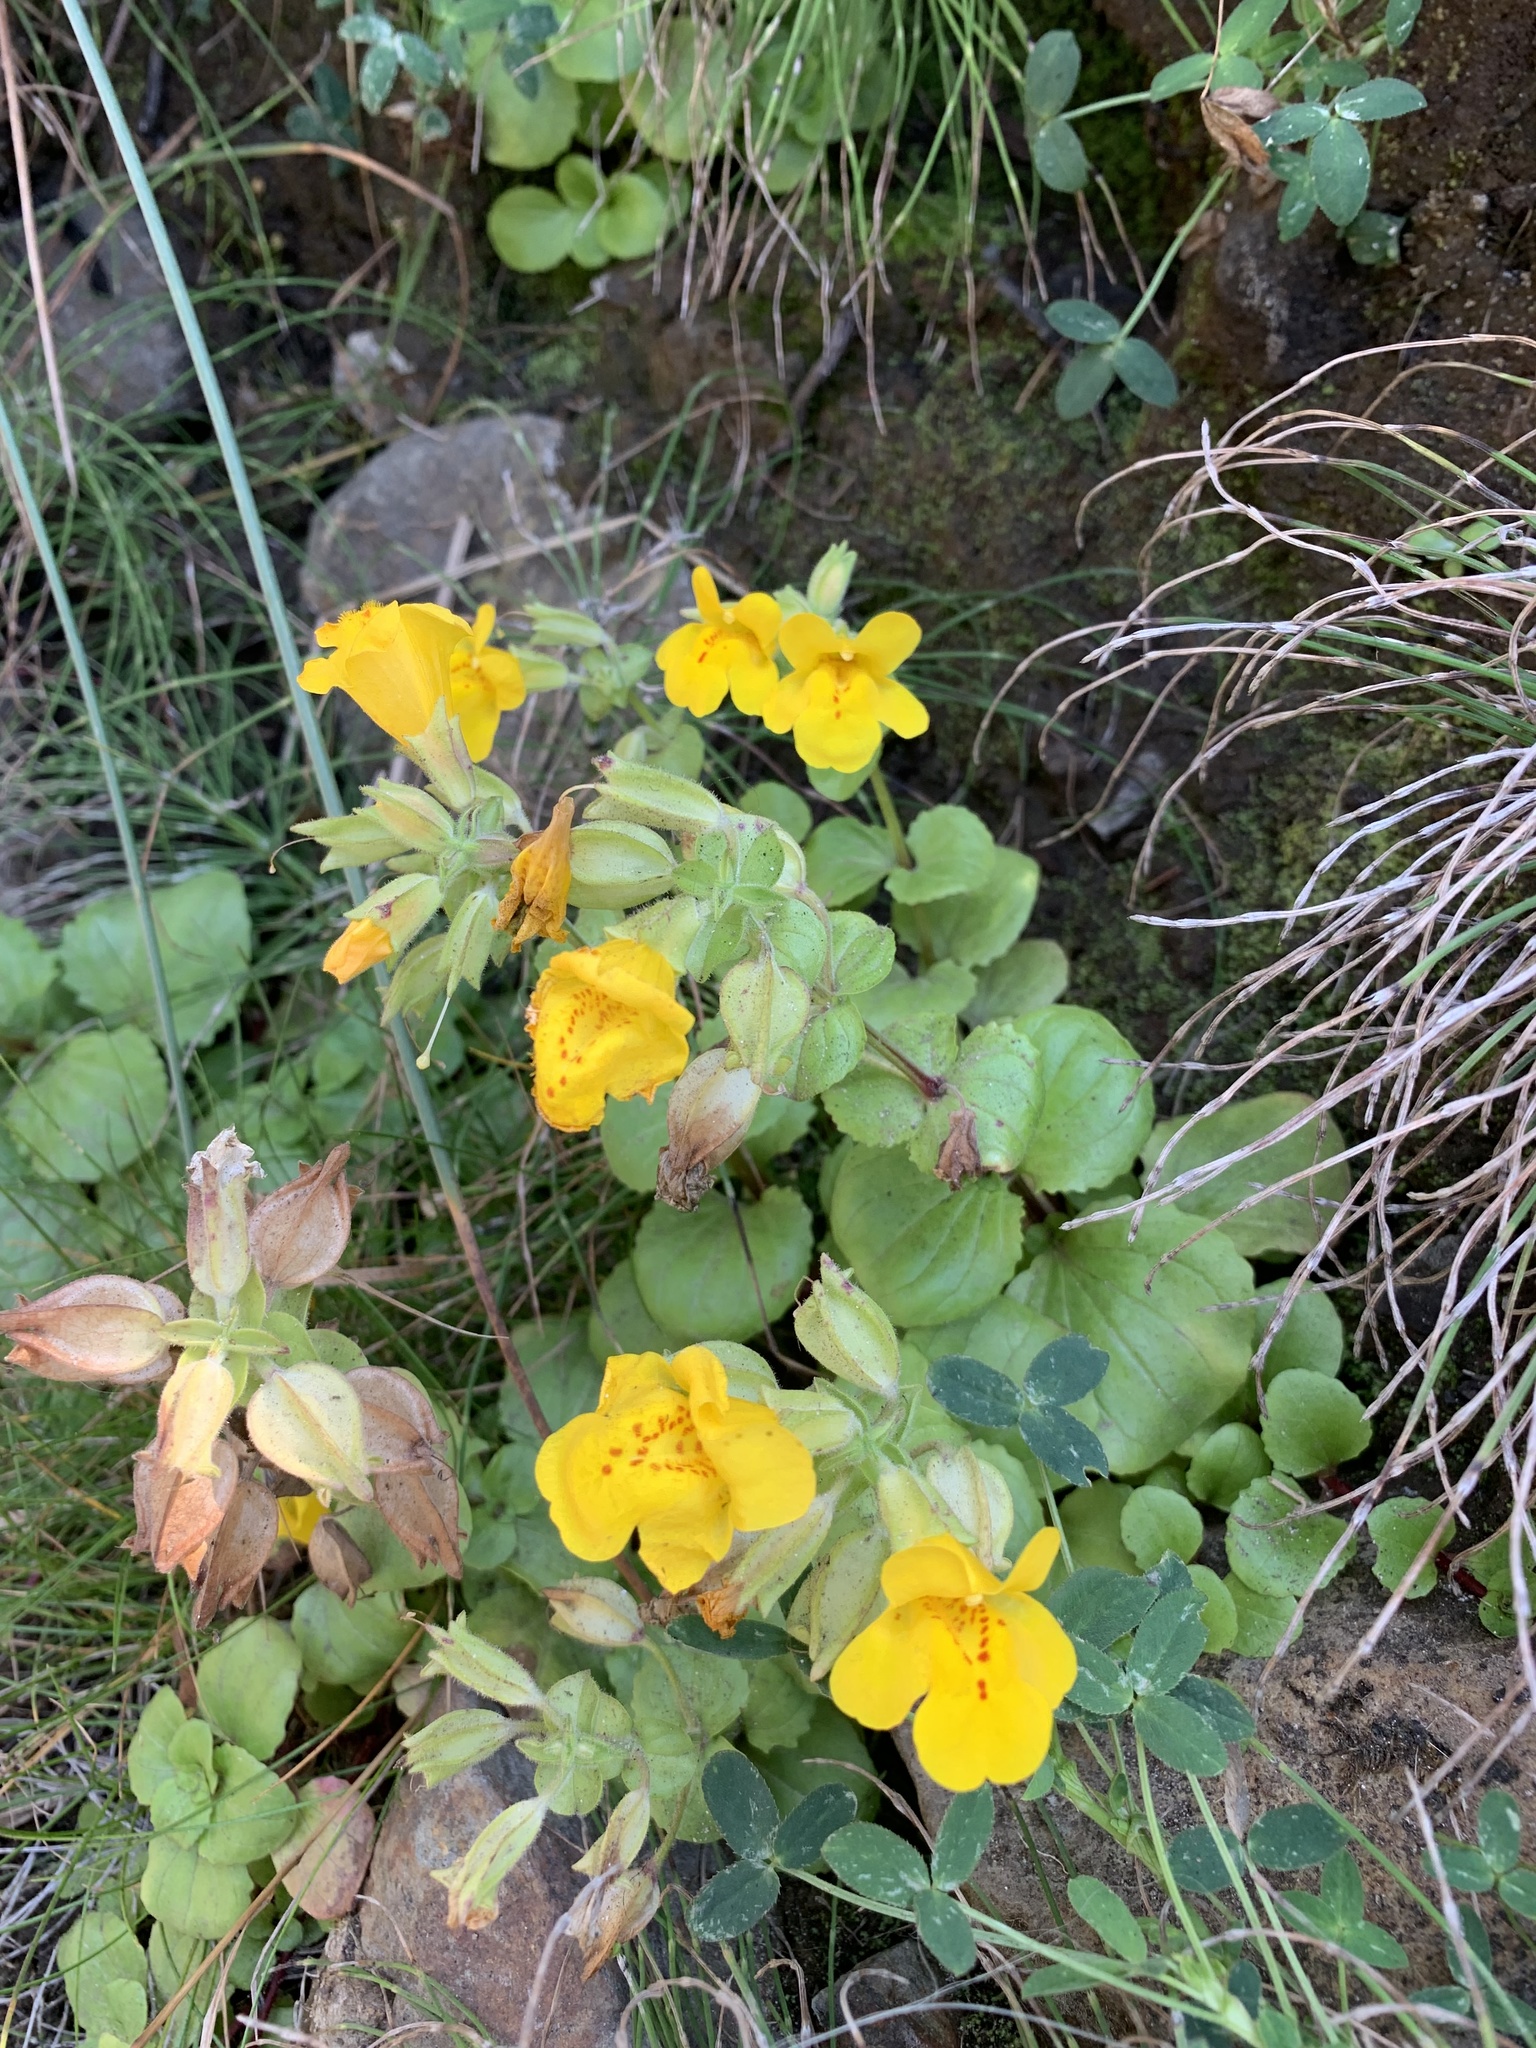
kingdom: Plantae
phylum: Tracheophyta
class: Magnoliopsida
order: Lamiales
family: Phrymaceae
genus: Erythranthe
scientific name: Erythranthe grandis
